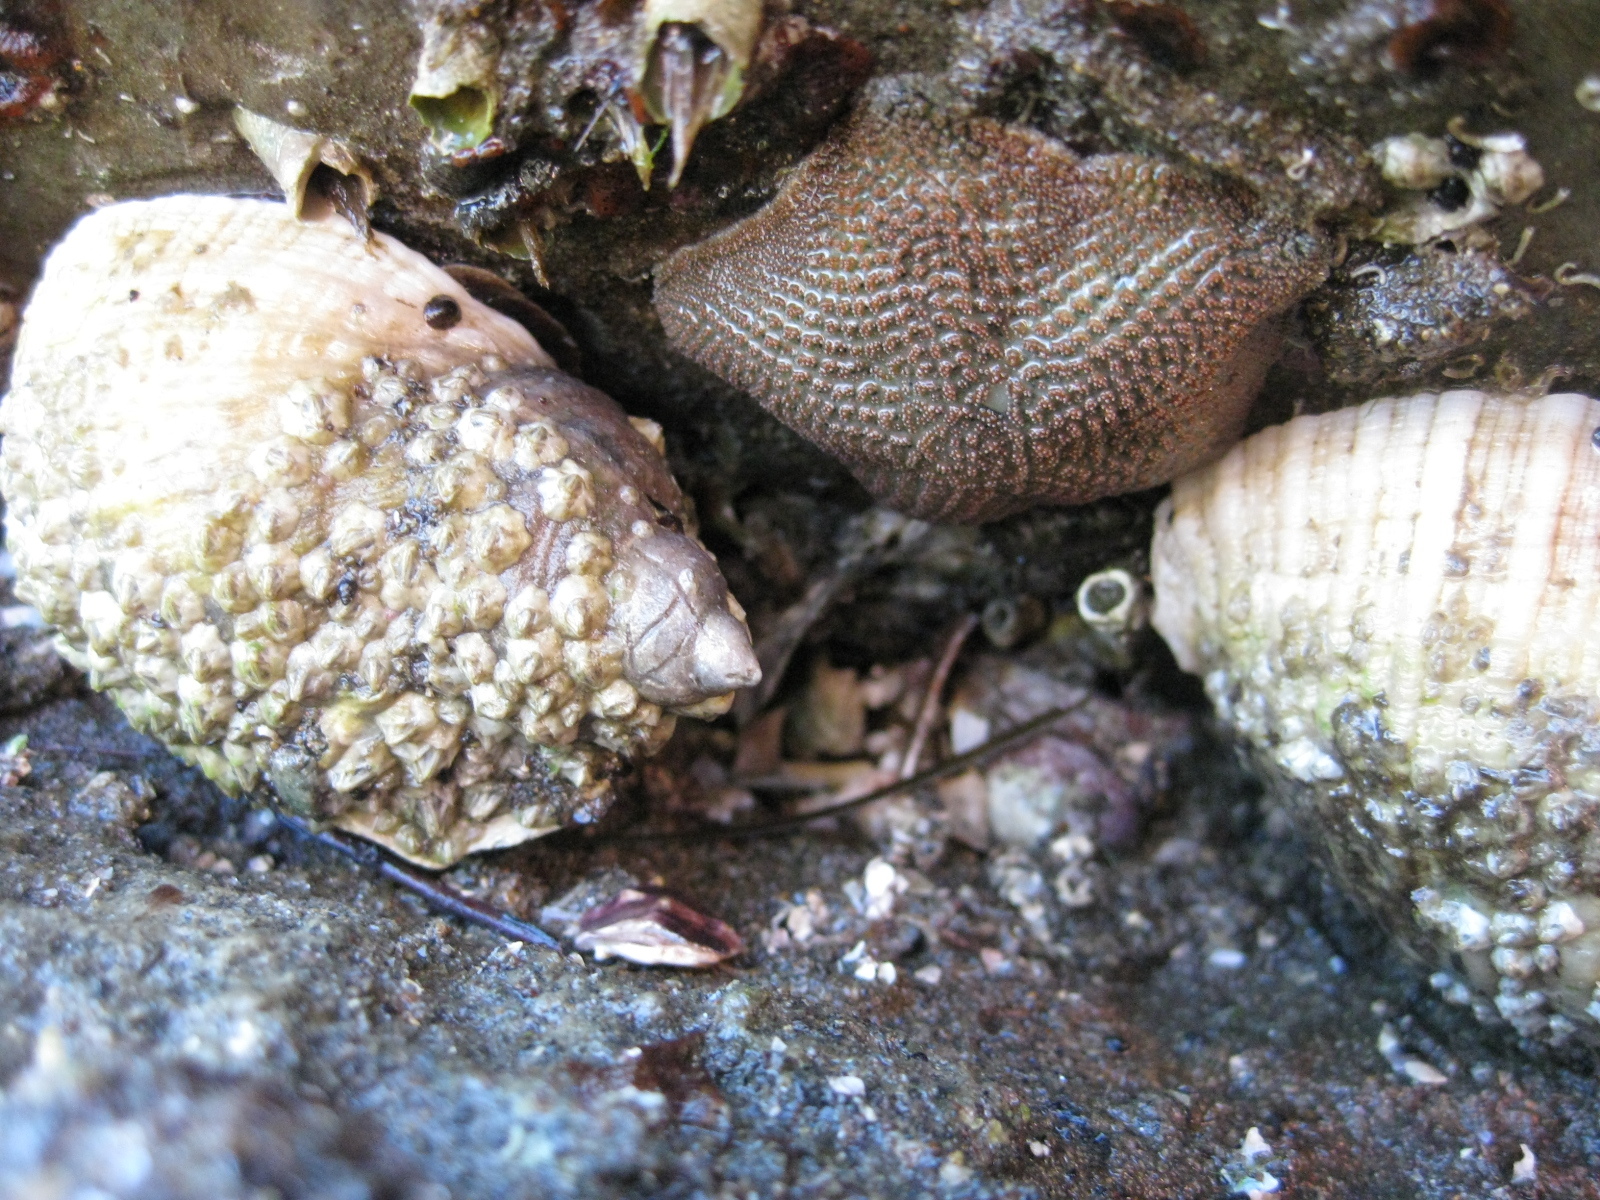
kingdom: Animalia
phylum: Echinodermata
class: Asteroidea
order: Valvatida
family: Asterinidae
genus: Patiriella
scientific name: Patiriella regularis
